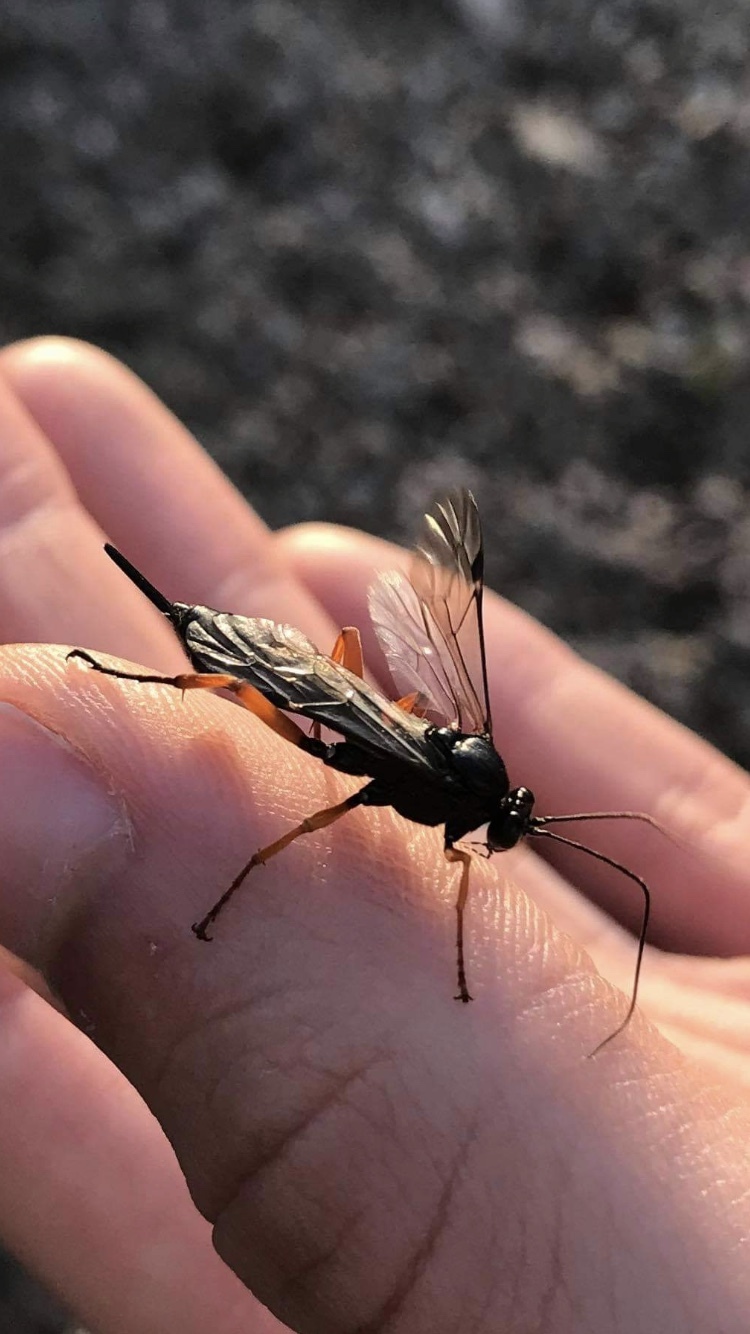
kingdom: Animalia
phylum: Arthropoda
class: Insecta
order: Hymenoptera
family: Ichneumonidae
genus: Pimpla
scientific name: Pimpla rufipes
